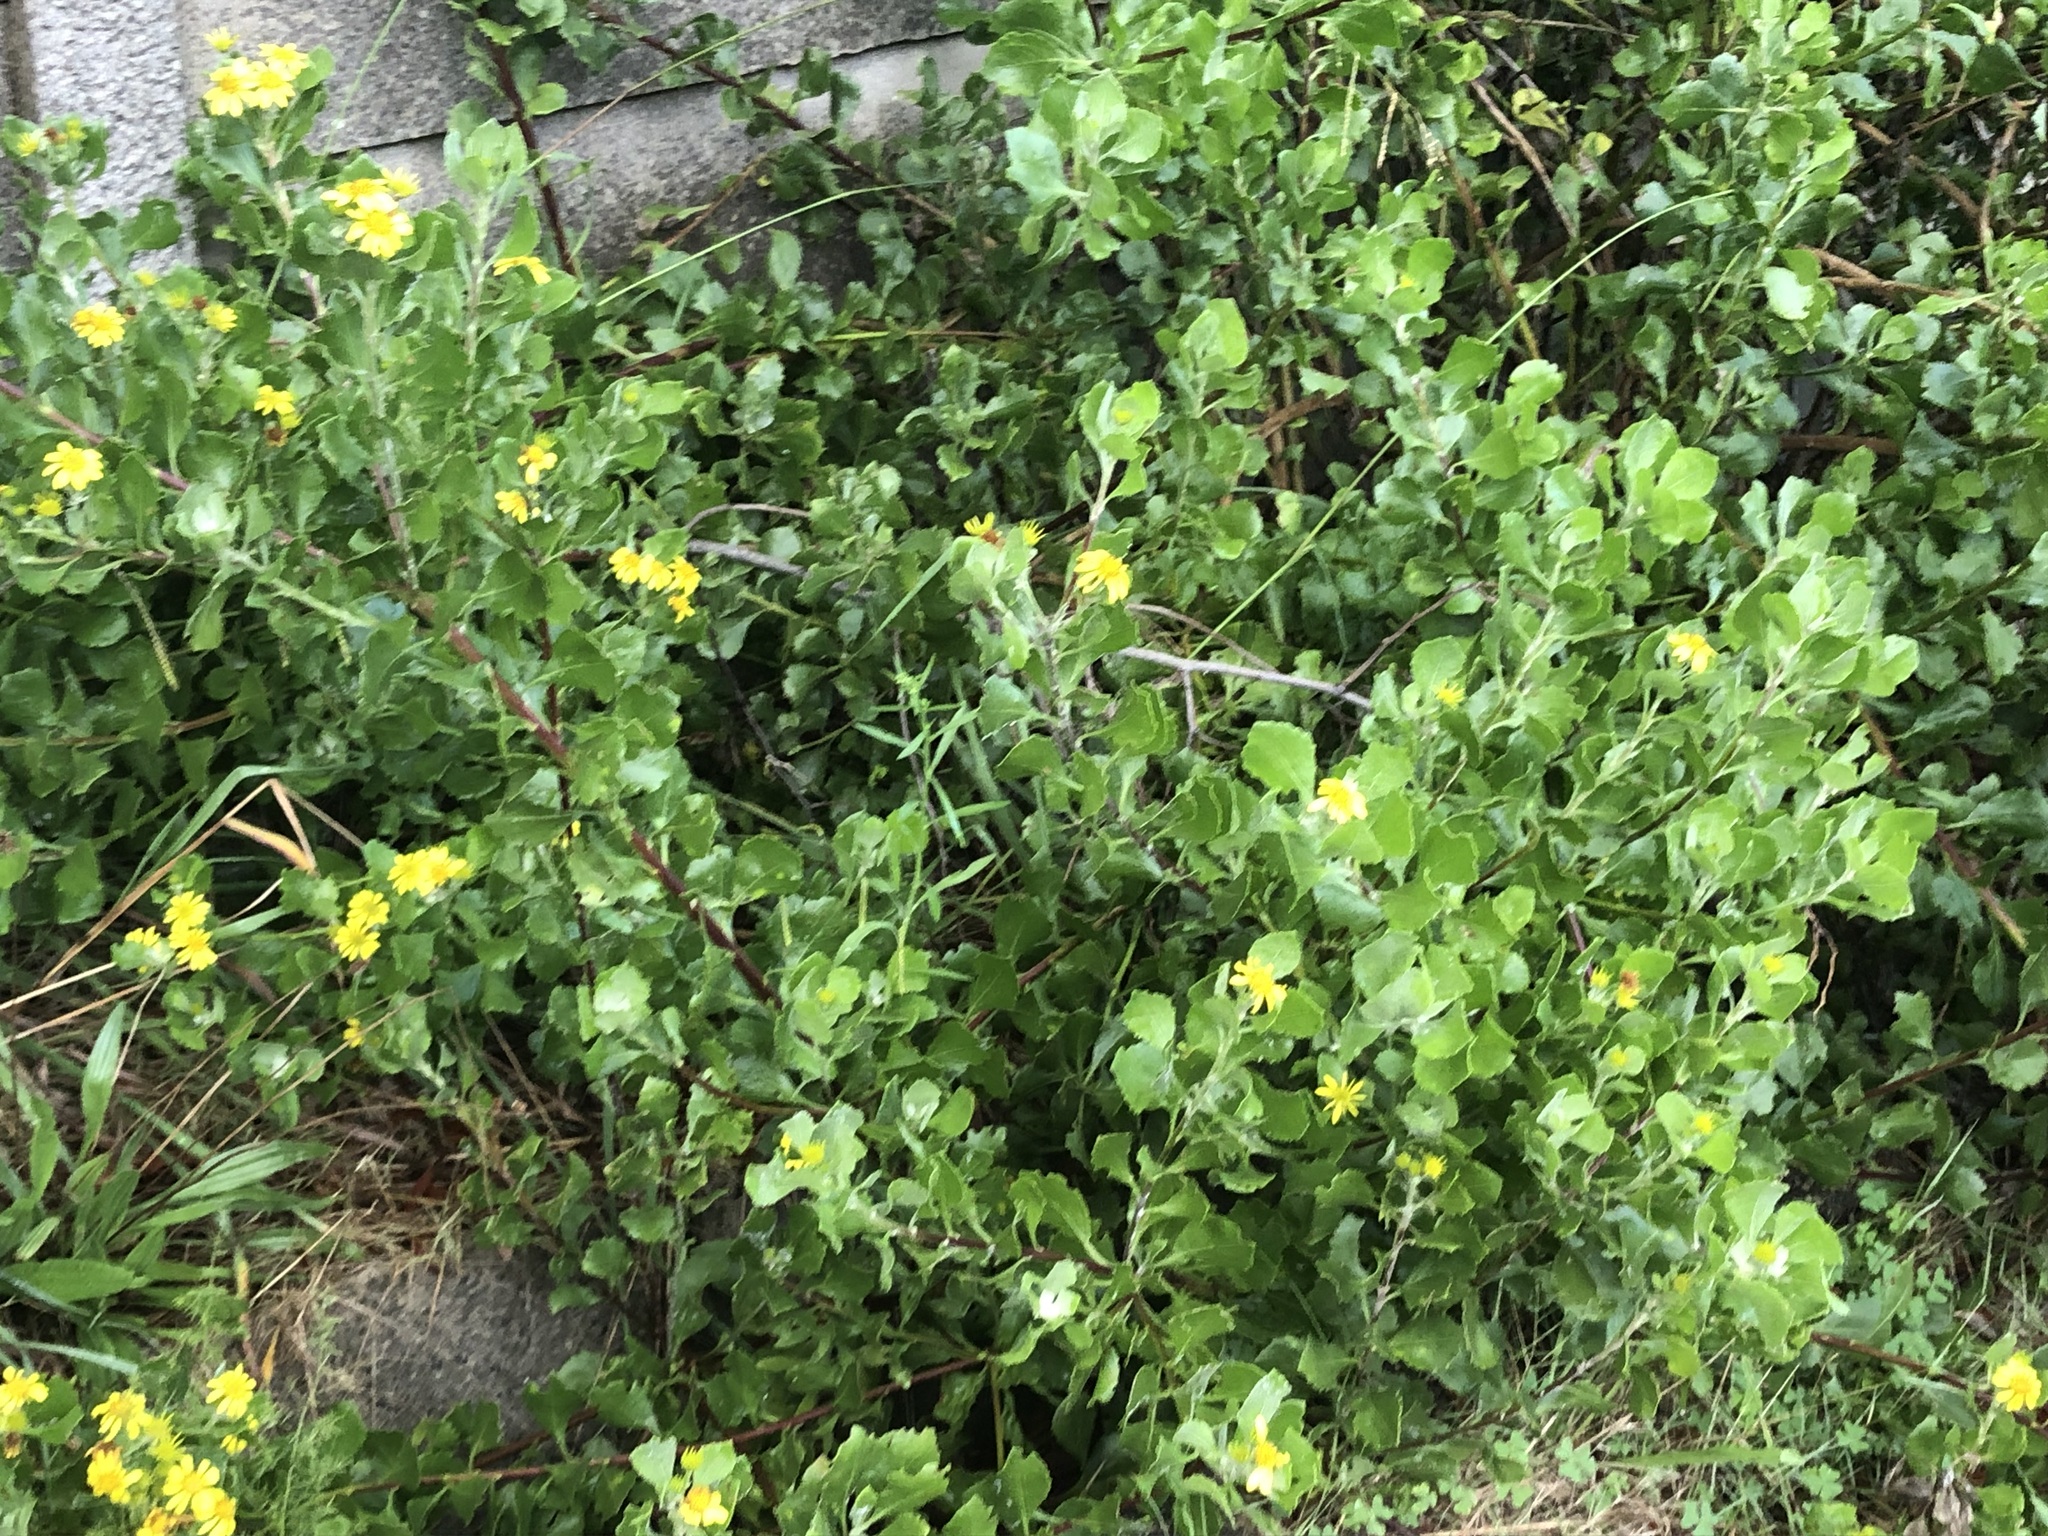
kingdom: Plantae
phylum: Tracheophyta
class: Magnoliopsida
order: Asterales
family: Asteraceae
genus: Osteospermum
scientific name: Osteospermum moniliferum
